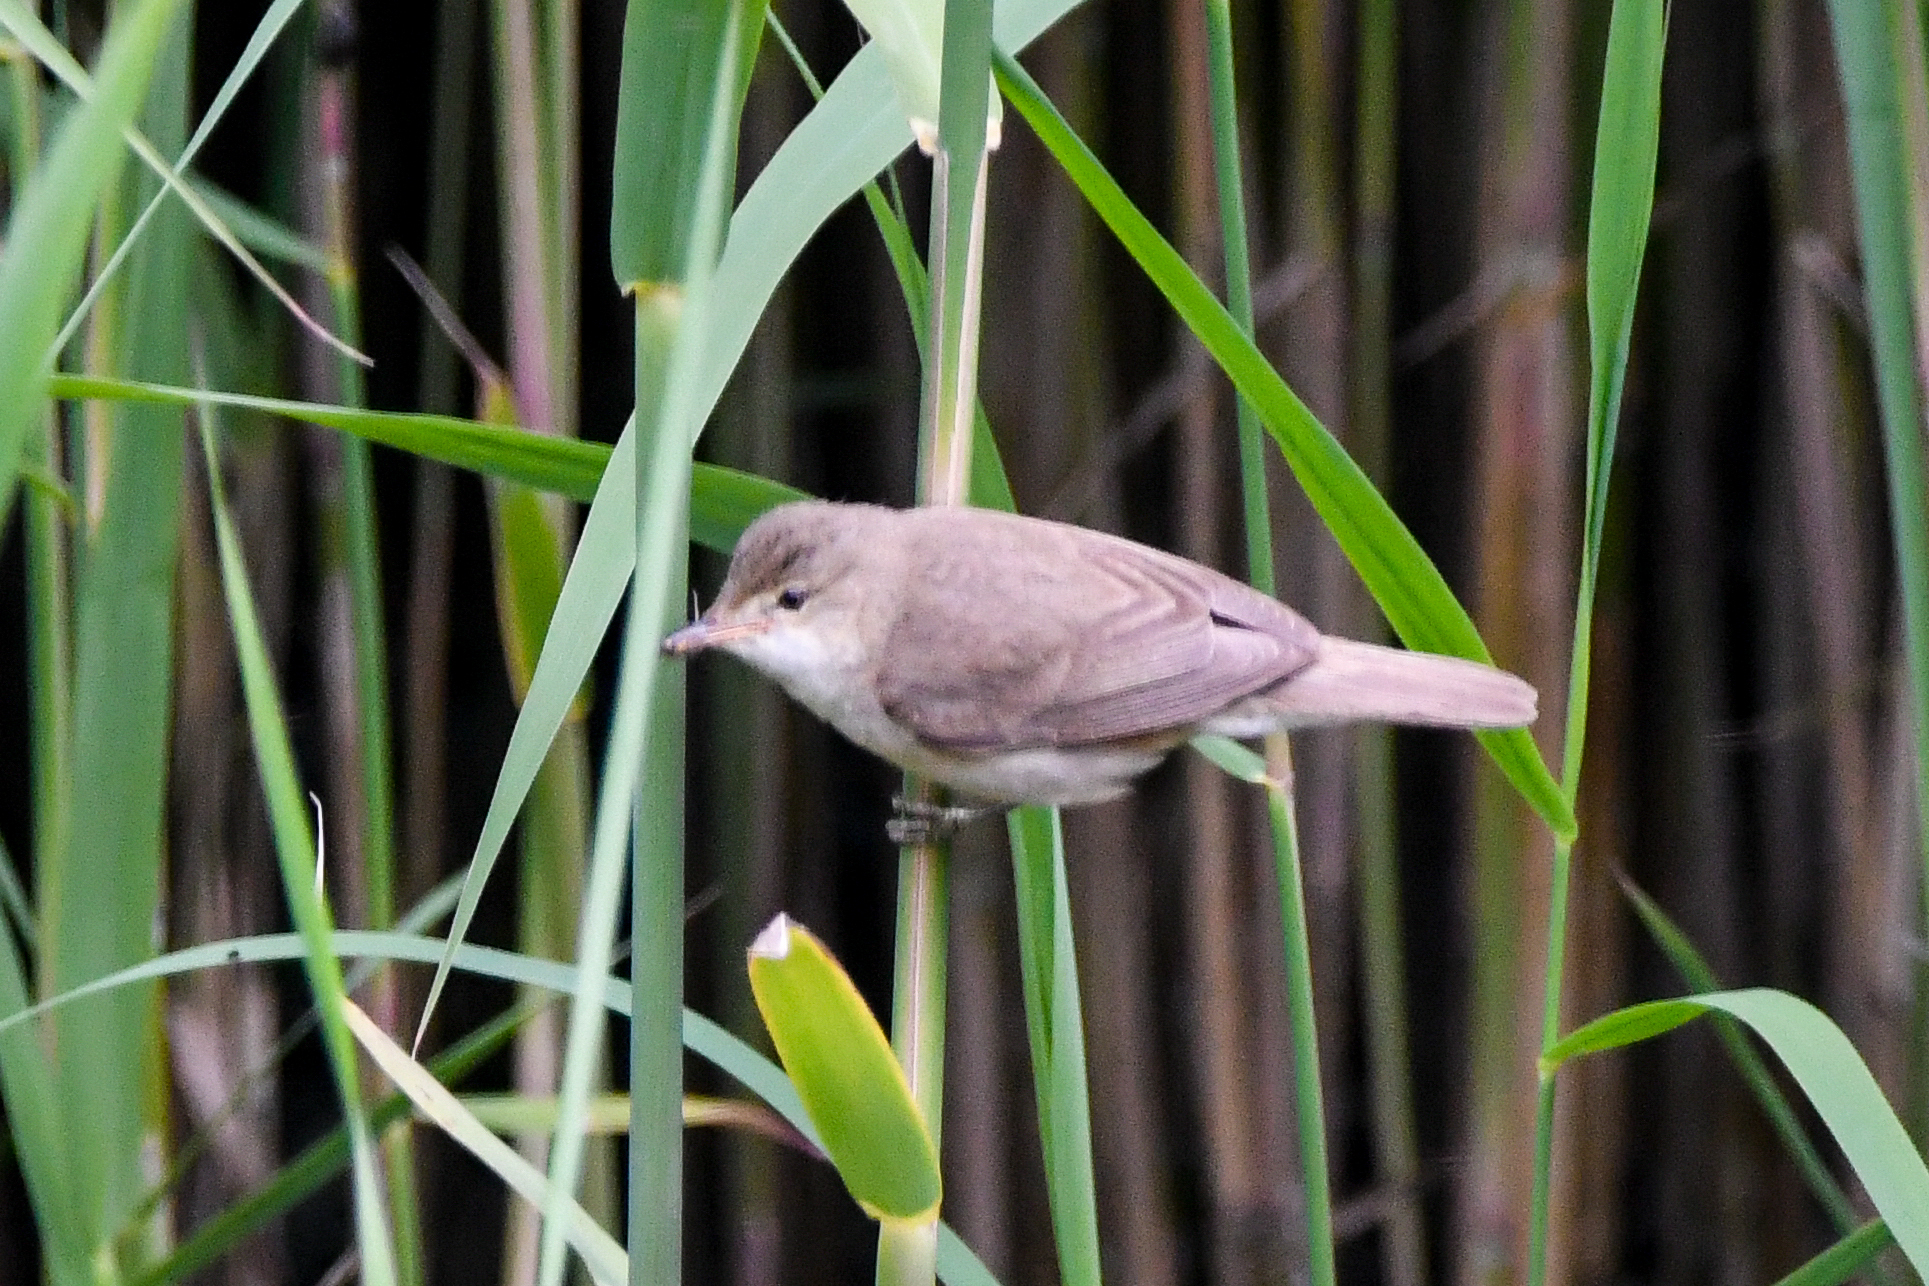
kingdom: Animalia
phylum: Chordata
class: Aves
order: Passeriformes
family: Acrocephalidae
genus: Acrocephalus
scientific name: Acrocephalus scirpaceus
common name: Eurasian reed warbler
